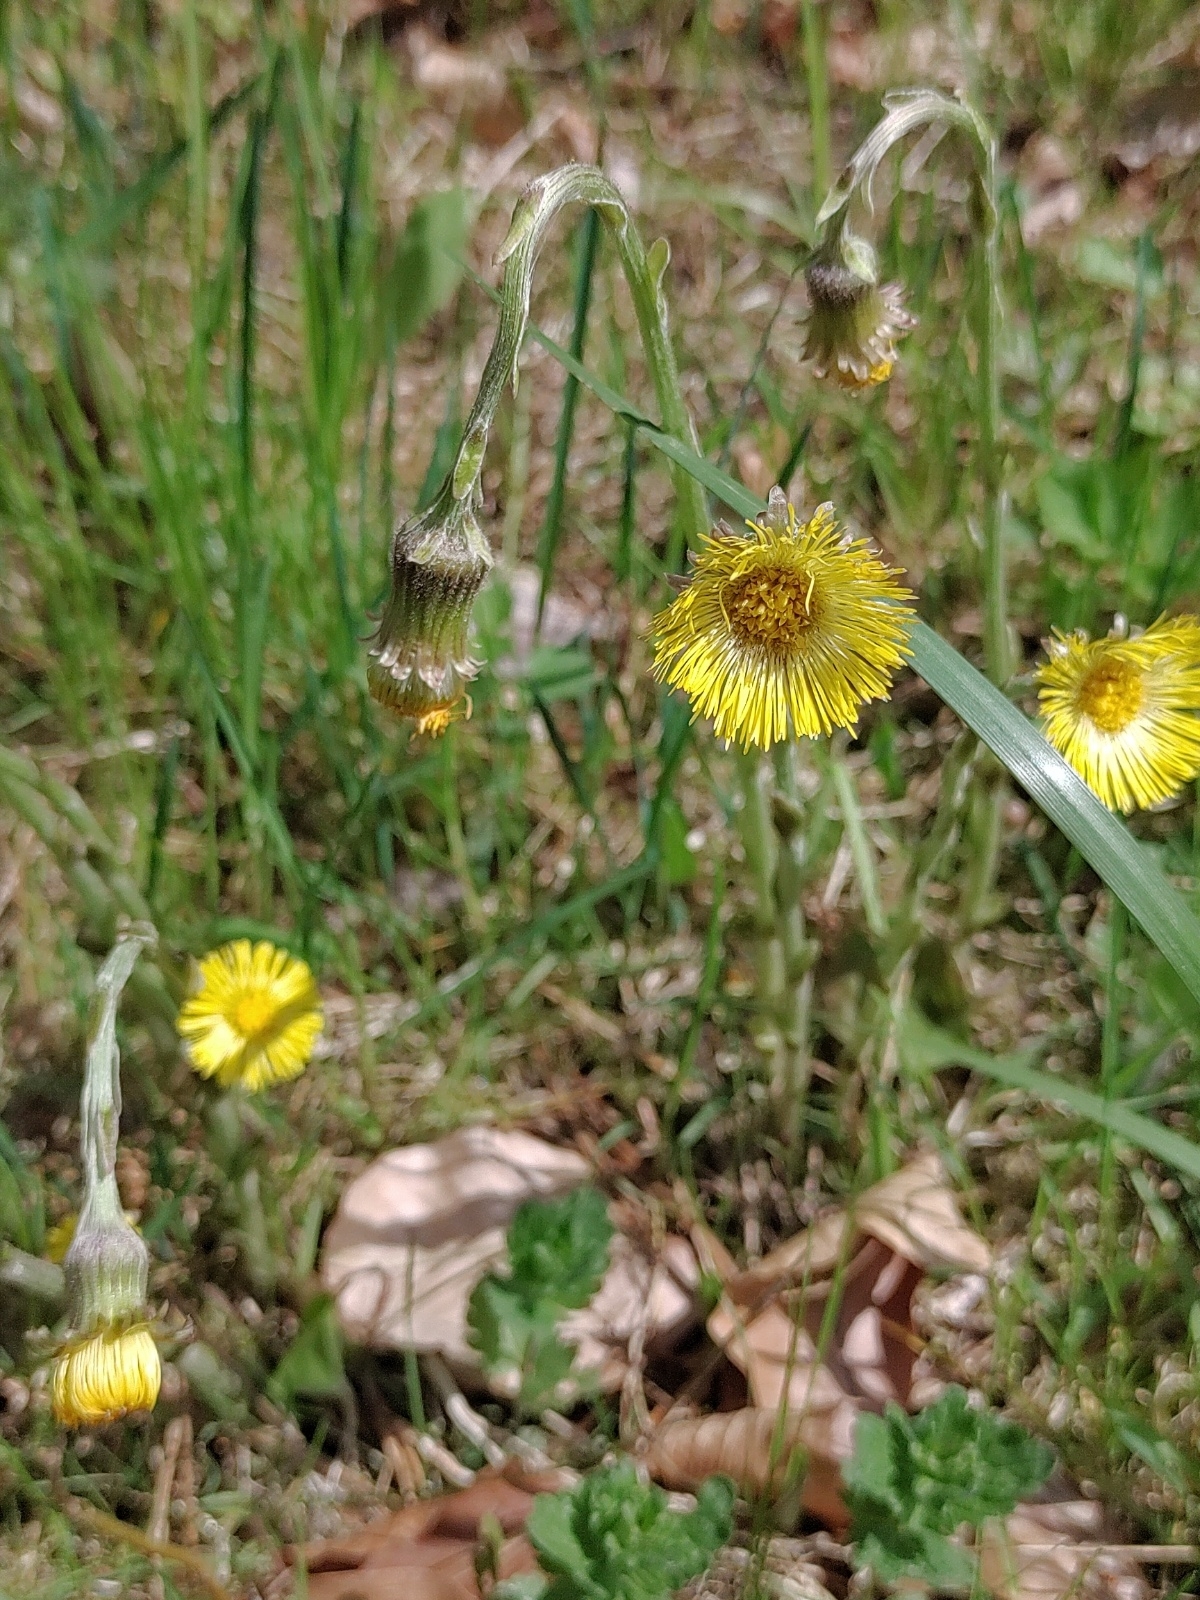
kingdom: Plantae
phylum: Tracheophyta
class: Magnoliopsida
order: Asterales
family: Asteraceae
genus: Tussilago
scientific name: Tussilago farfara
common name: Coltsfoot
